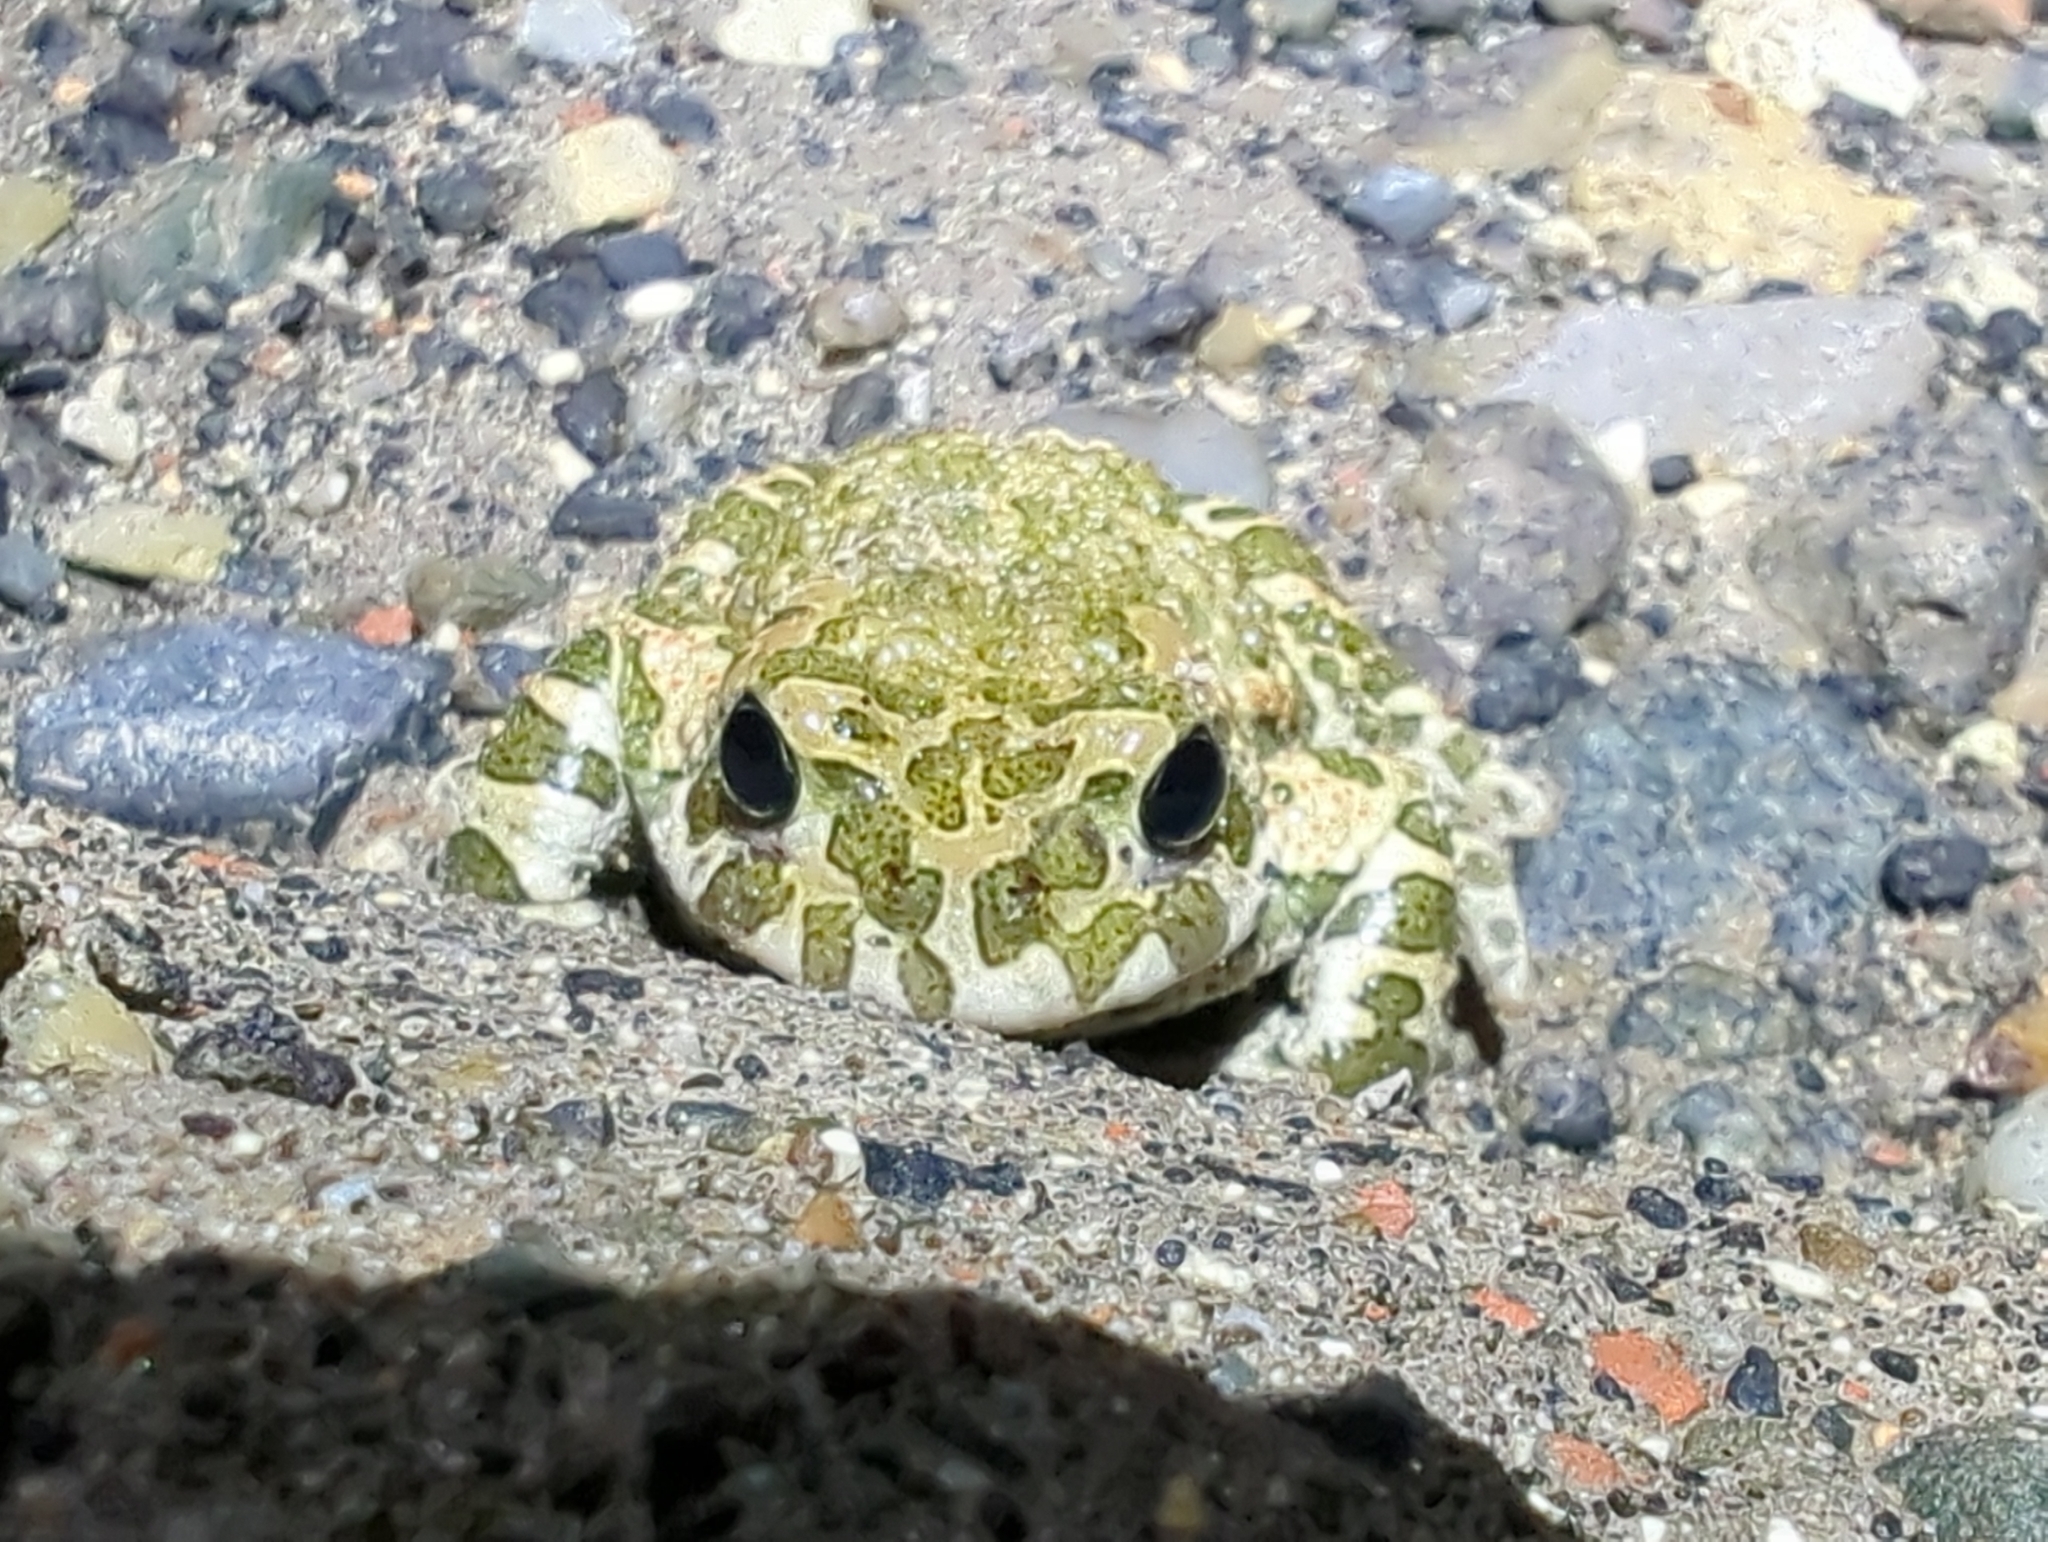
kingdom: Animalia
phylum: Chordata
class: Amphibia
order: Anura
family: Bufonidae
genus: Bufotes
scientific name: Bufotes viridis
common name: European green toad
